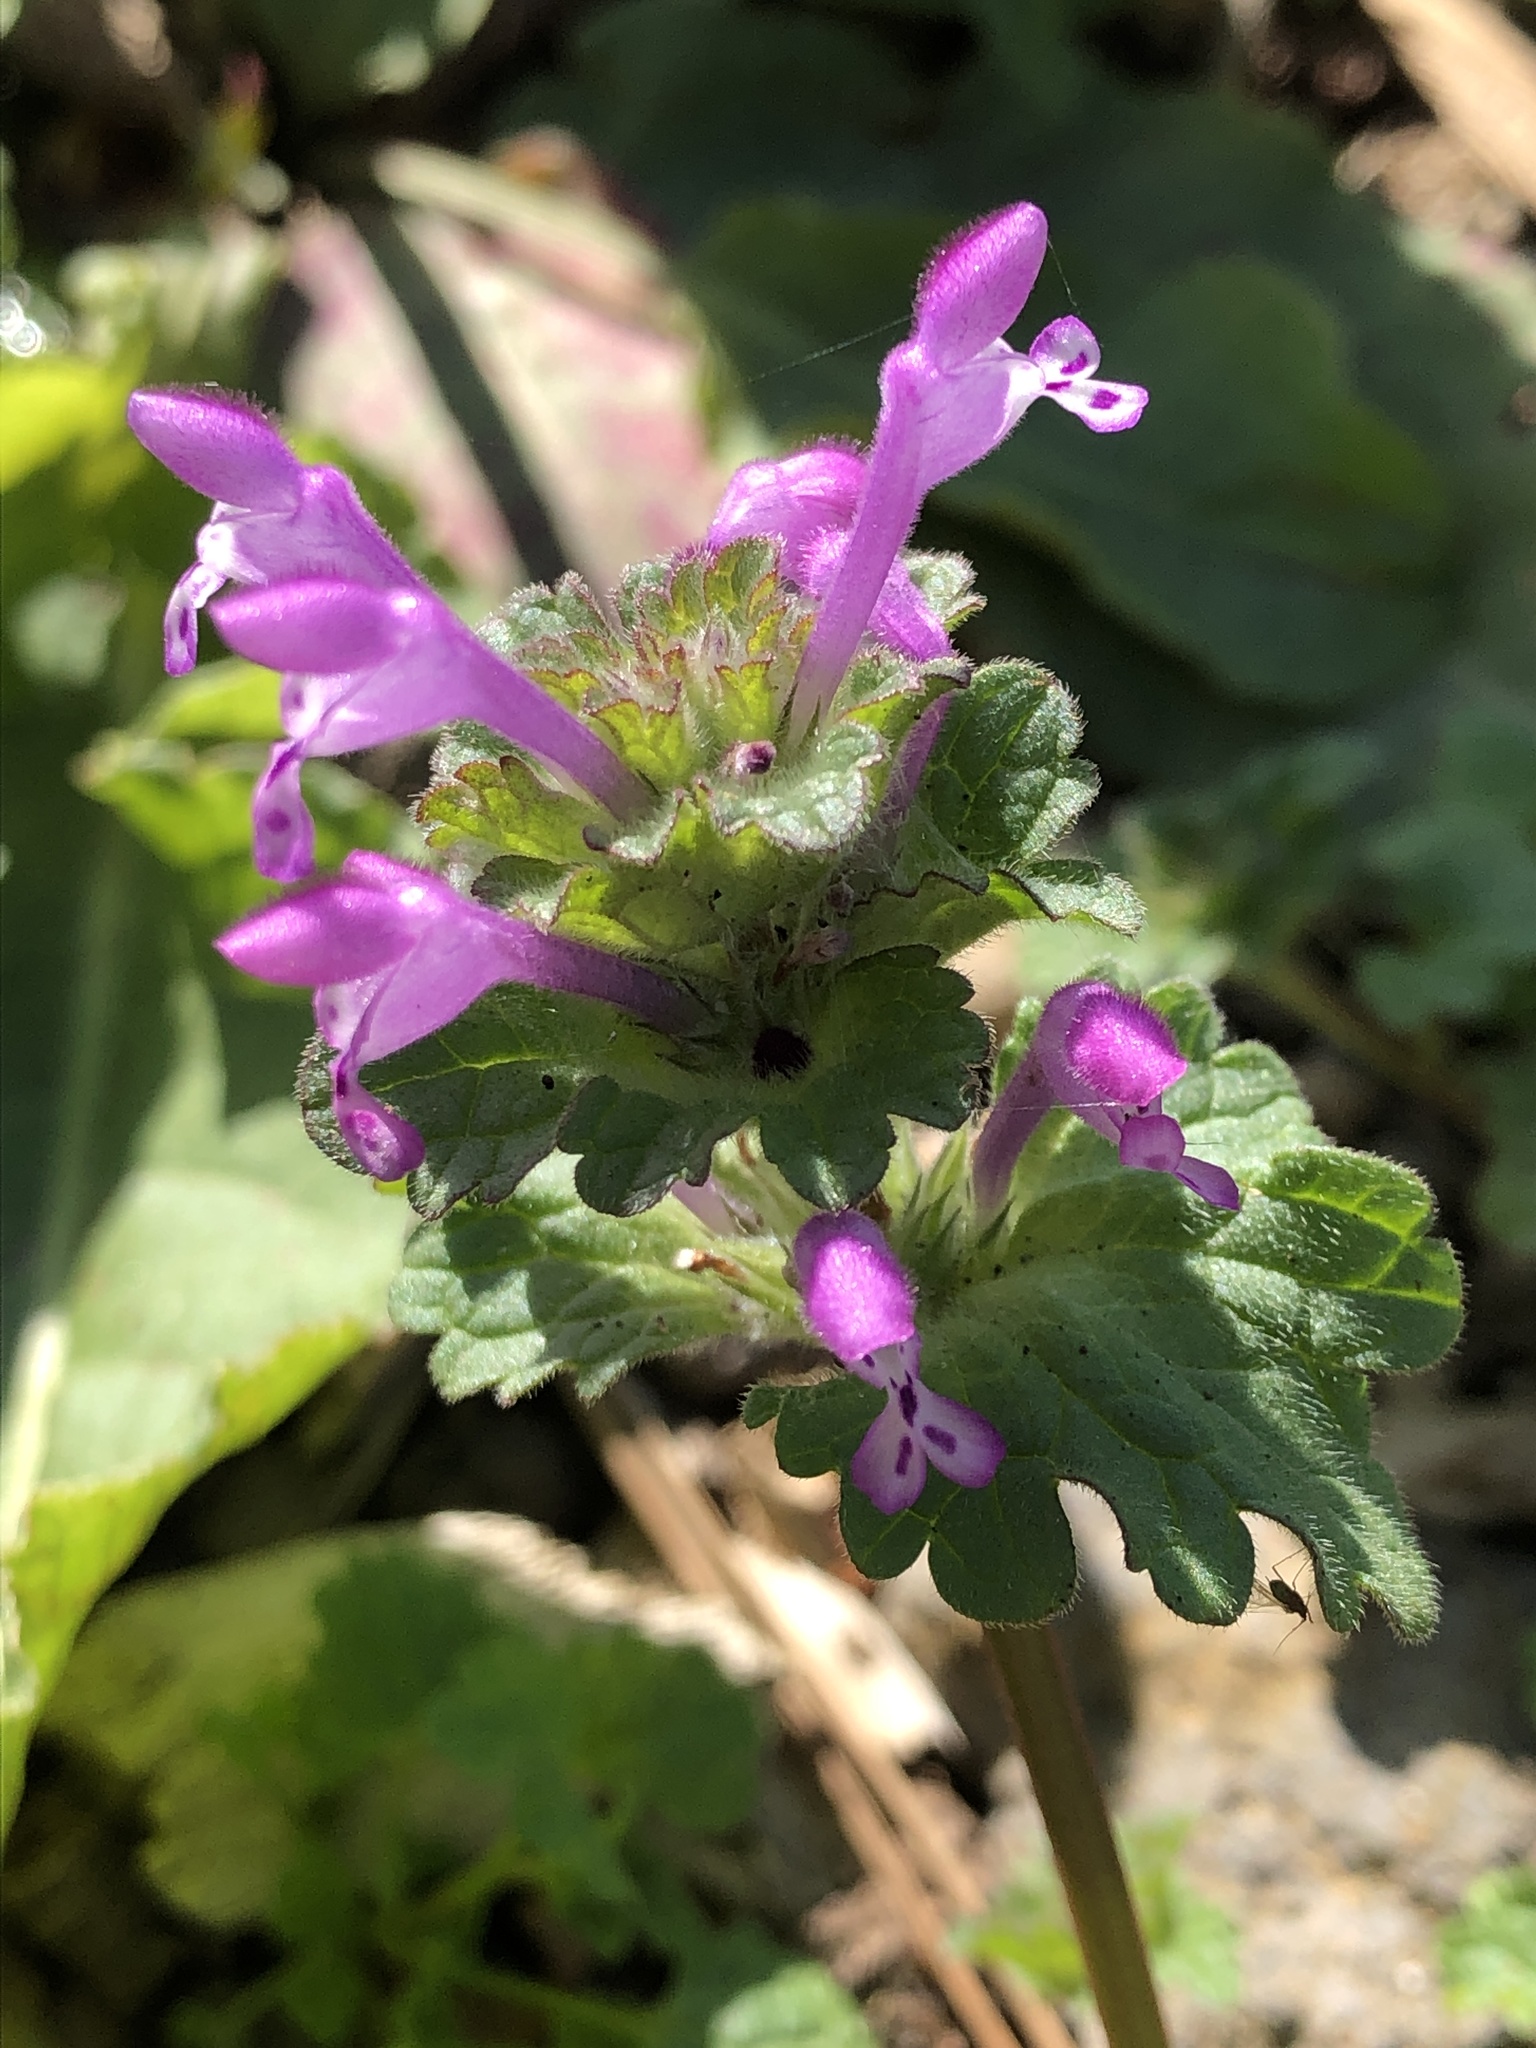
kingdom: Plantae
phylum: Tracheophyta
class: Magnoliopsida
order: Lamiales
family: Lamiaceae
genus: Lamium
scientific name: Lamium amplexicaule
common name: Henbit dead-nettle
